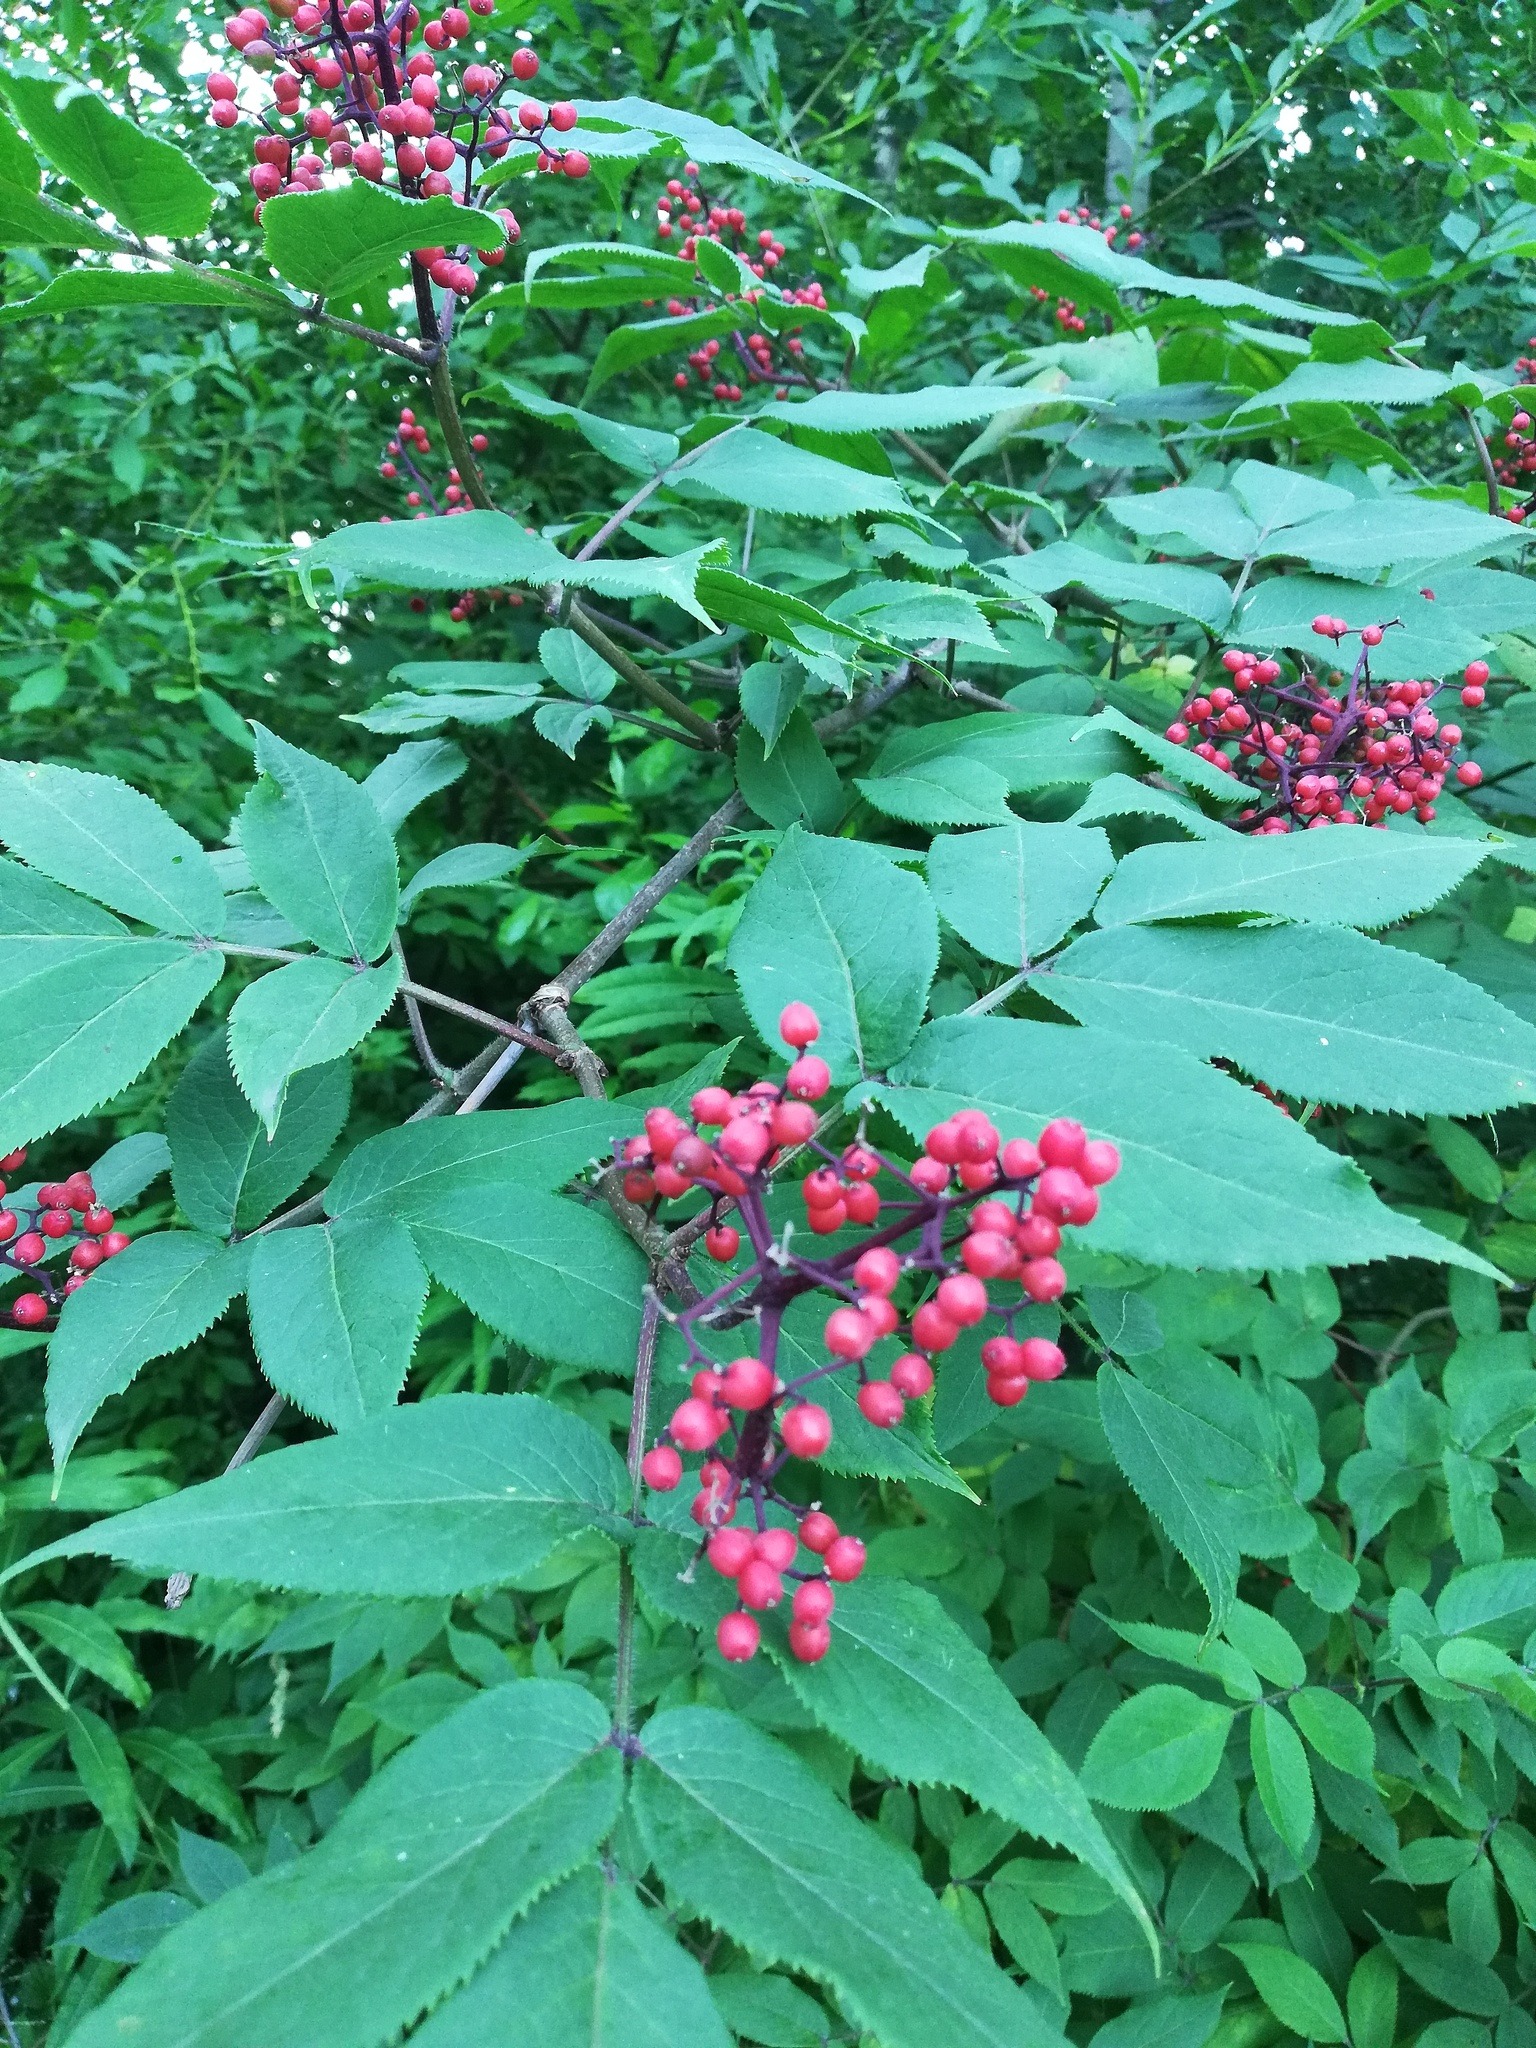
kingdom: Plantae
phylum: Tracheophyta
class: Magnoliopsida
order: Dipsacales
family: Viburnaceae
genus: Sambucus
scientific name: Sambucus sibirica
